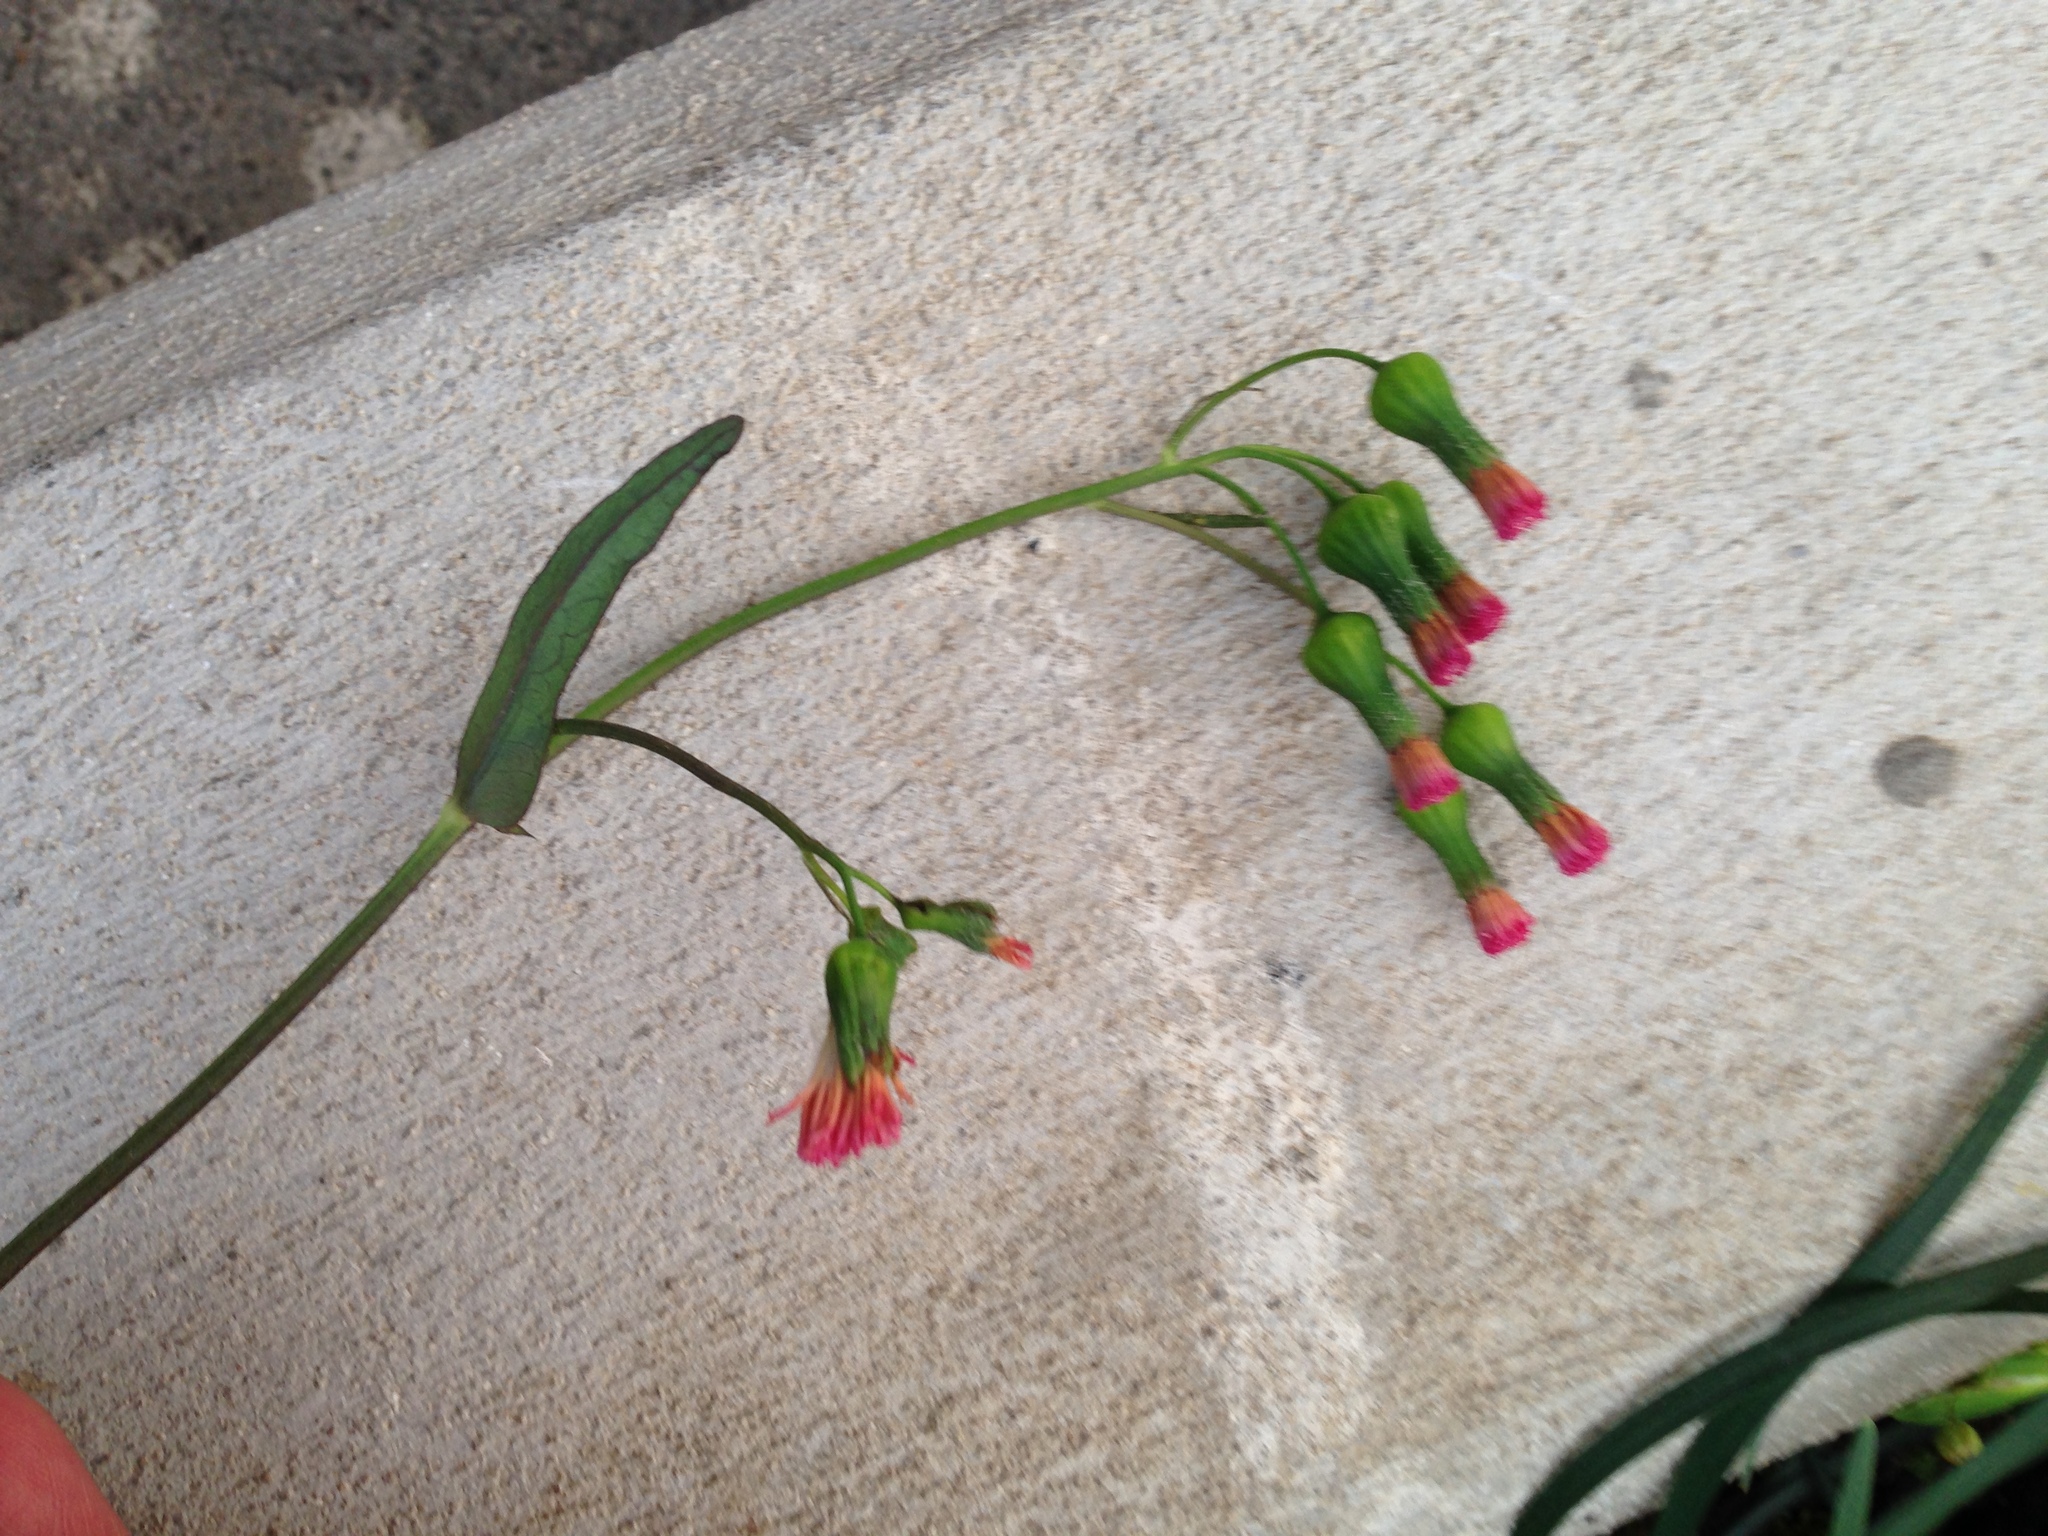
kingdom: Plantae
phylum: Tracheophyta
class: Magnoliopsida
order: Asterales
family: Asteraceae
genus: Emilia
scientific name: Emilia fosbergii
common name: Florida tasselflower
